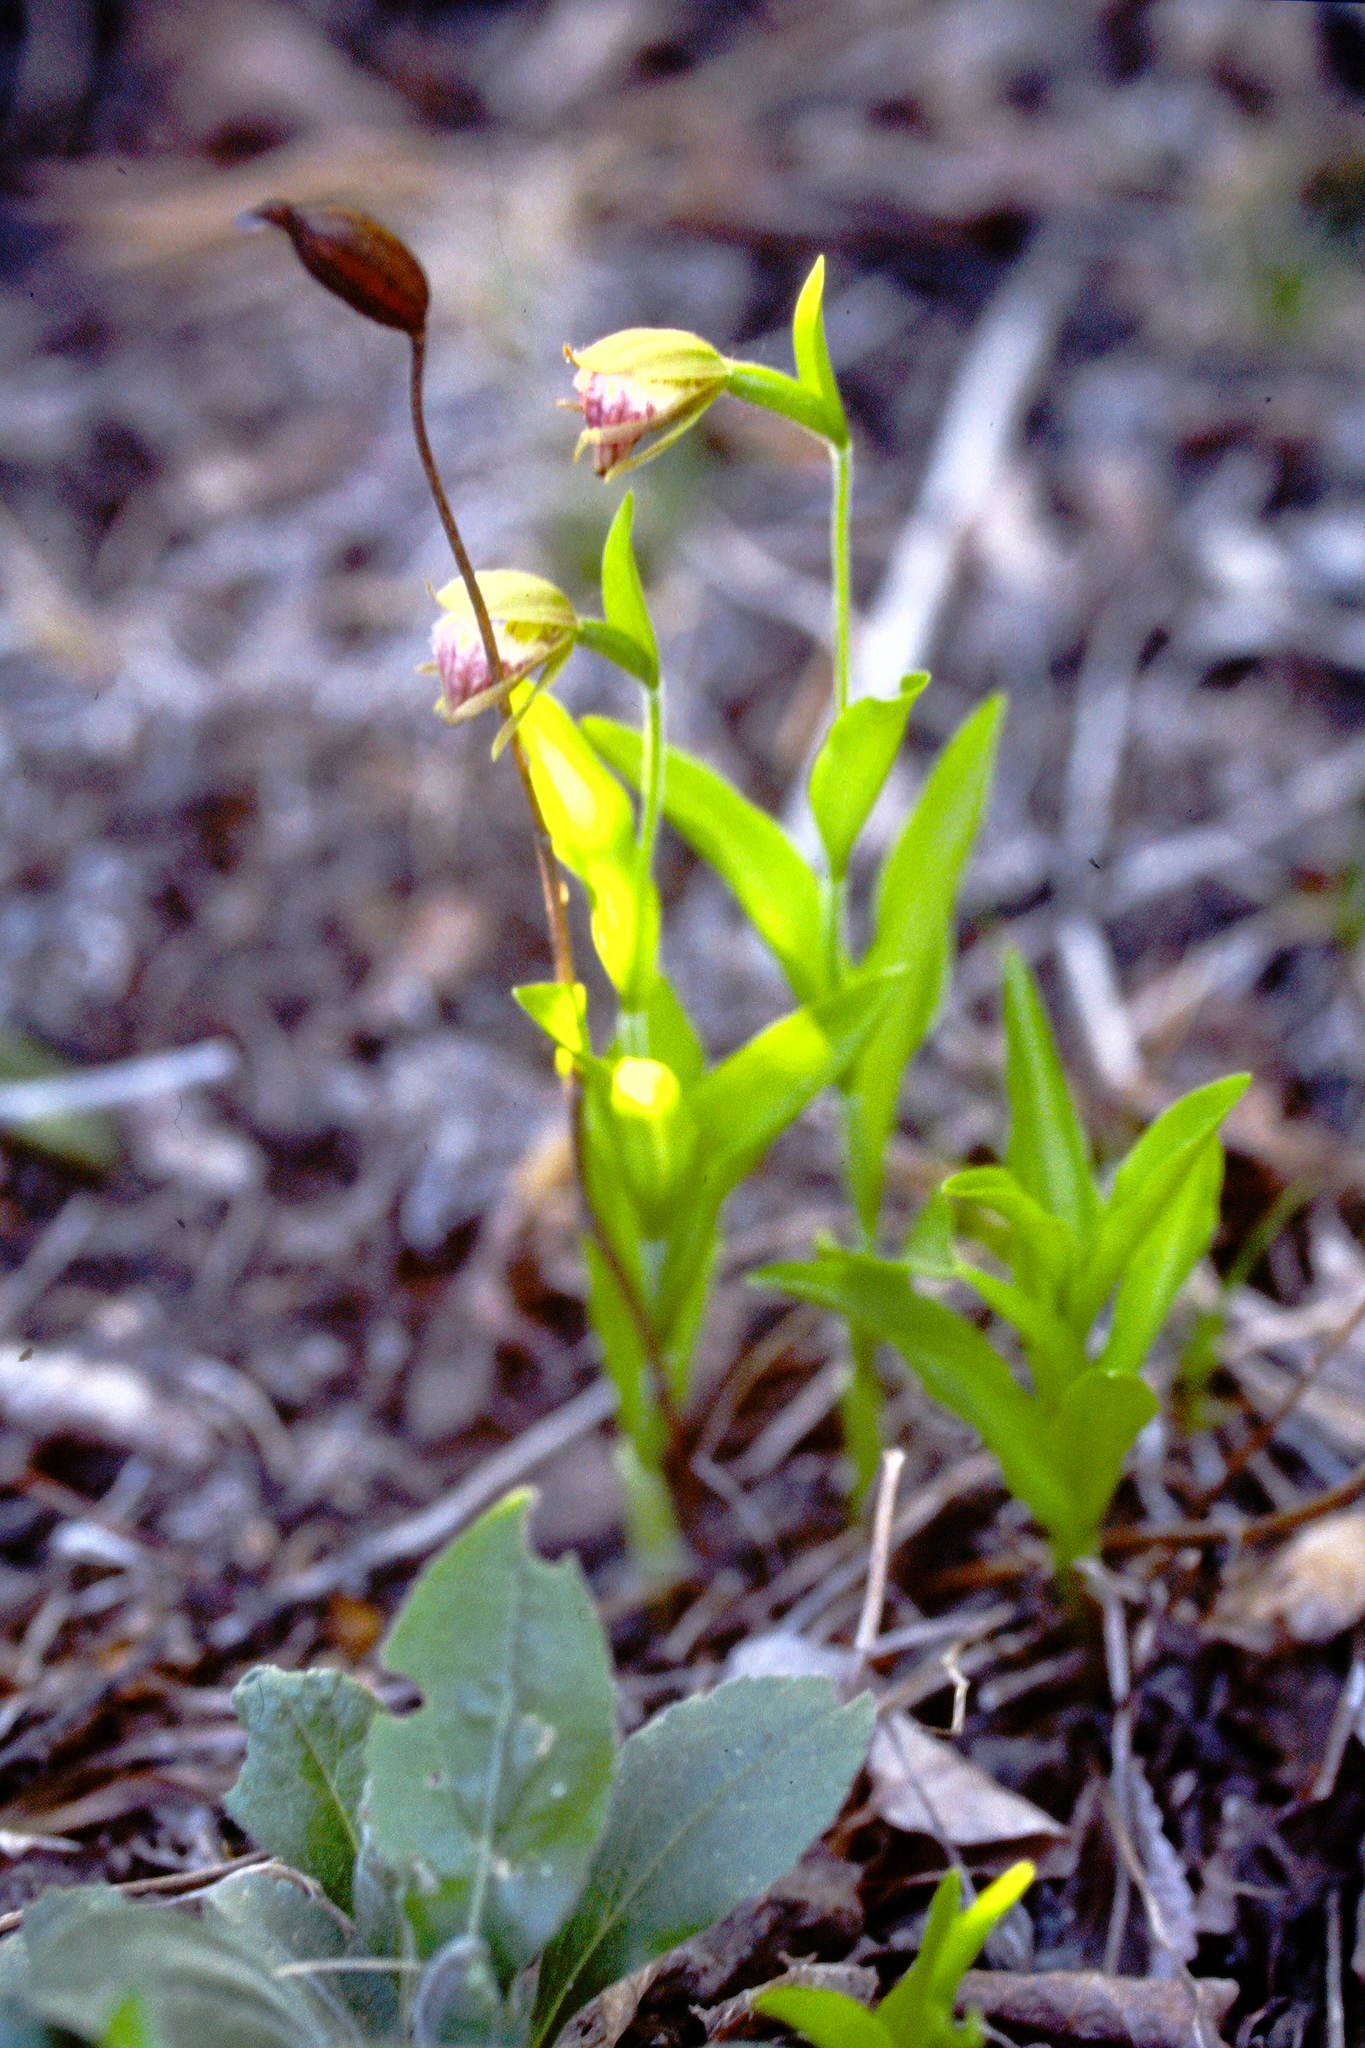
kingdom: Plantae
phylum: Tracheophyta
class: Liliopsida
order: Asparagales
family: Orchidaceae
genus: Cypripedium
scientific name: Cypripedium arietinum
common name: Ram's-head
